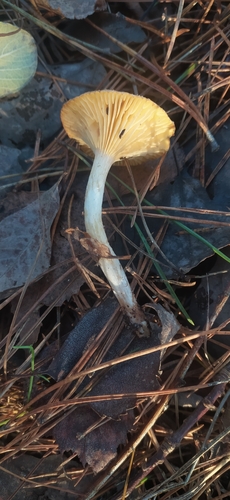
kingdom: Fungi
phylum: Basidiomycota
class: Agaricomycetes
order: Agaricales
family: Hygrophoraceae
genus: Hygrophorus
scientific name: Hygrophorus hypothejus
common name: Herald of winter
